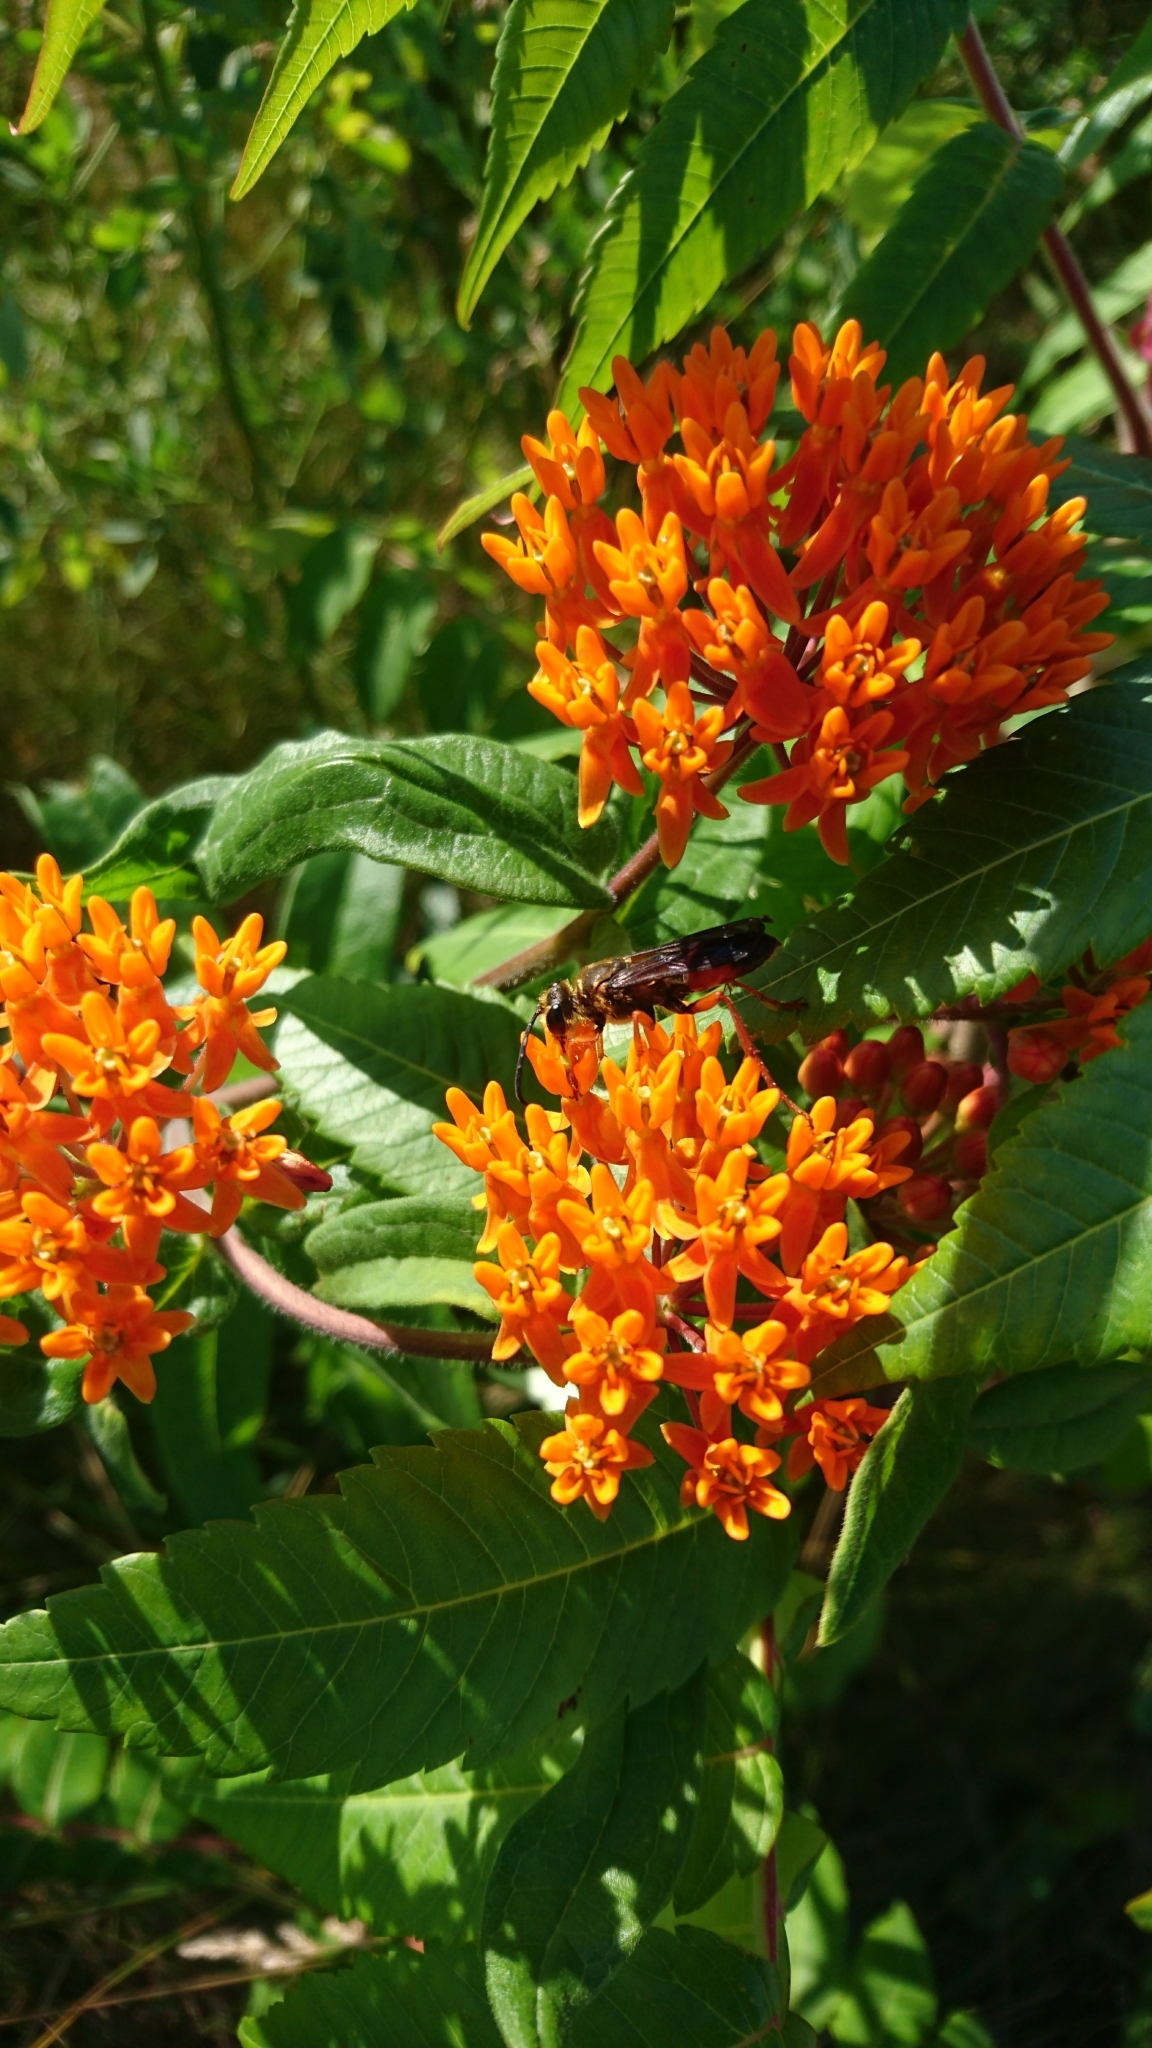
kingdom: Animalia
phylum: Arthropoda
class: Insecta
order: Hymenoptera
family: Sphecidae
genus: Sphex
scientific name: Sphex ichneumoneus
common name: Great golden digger wasp
